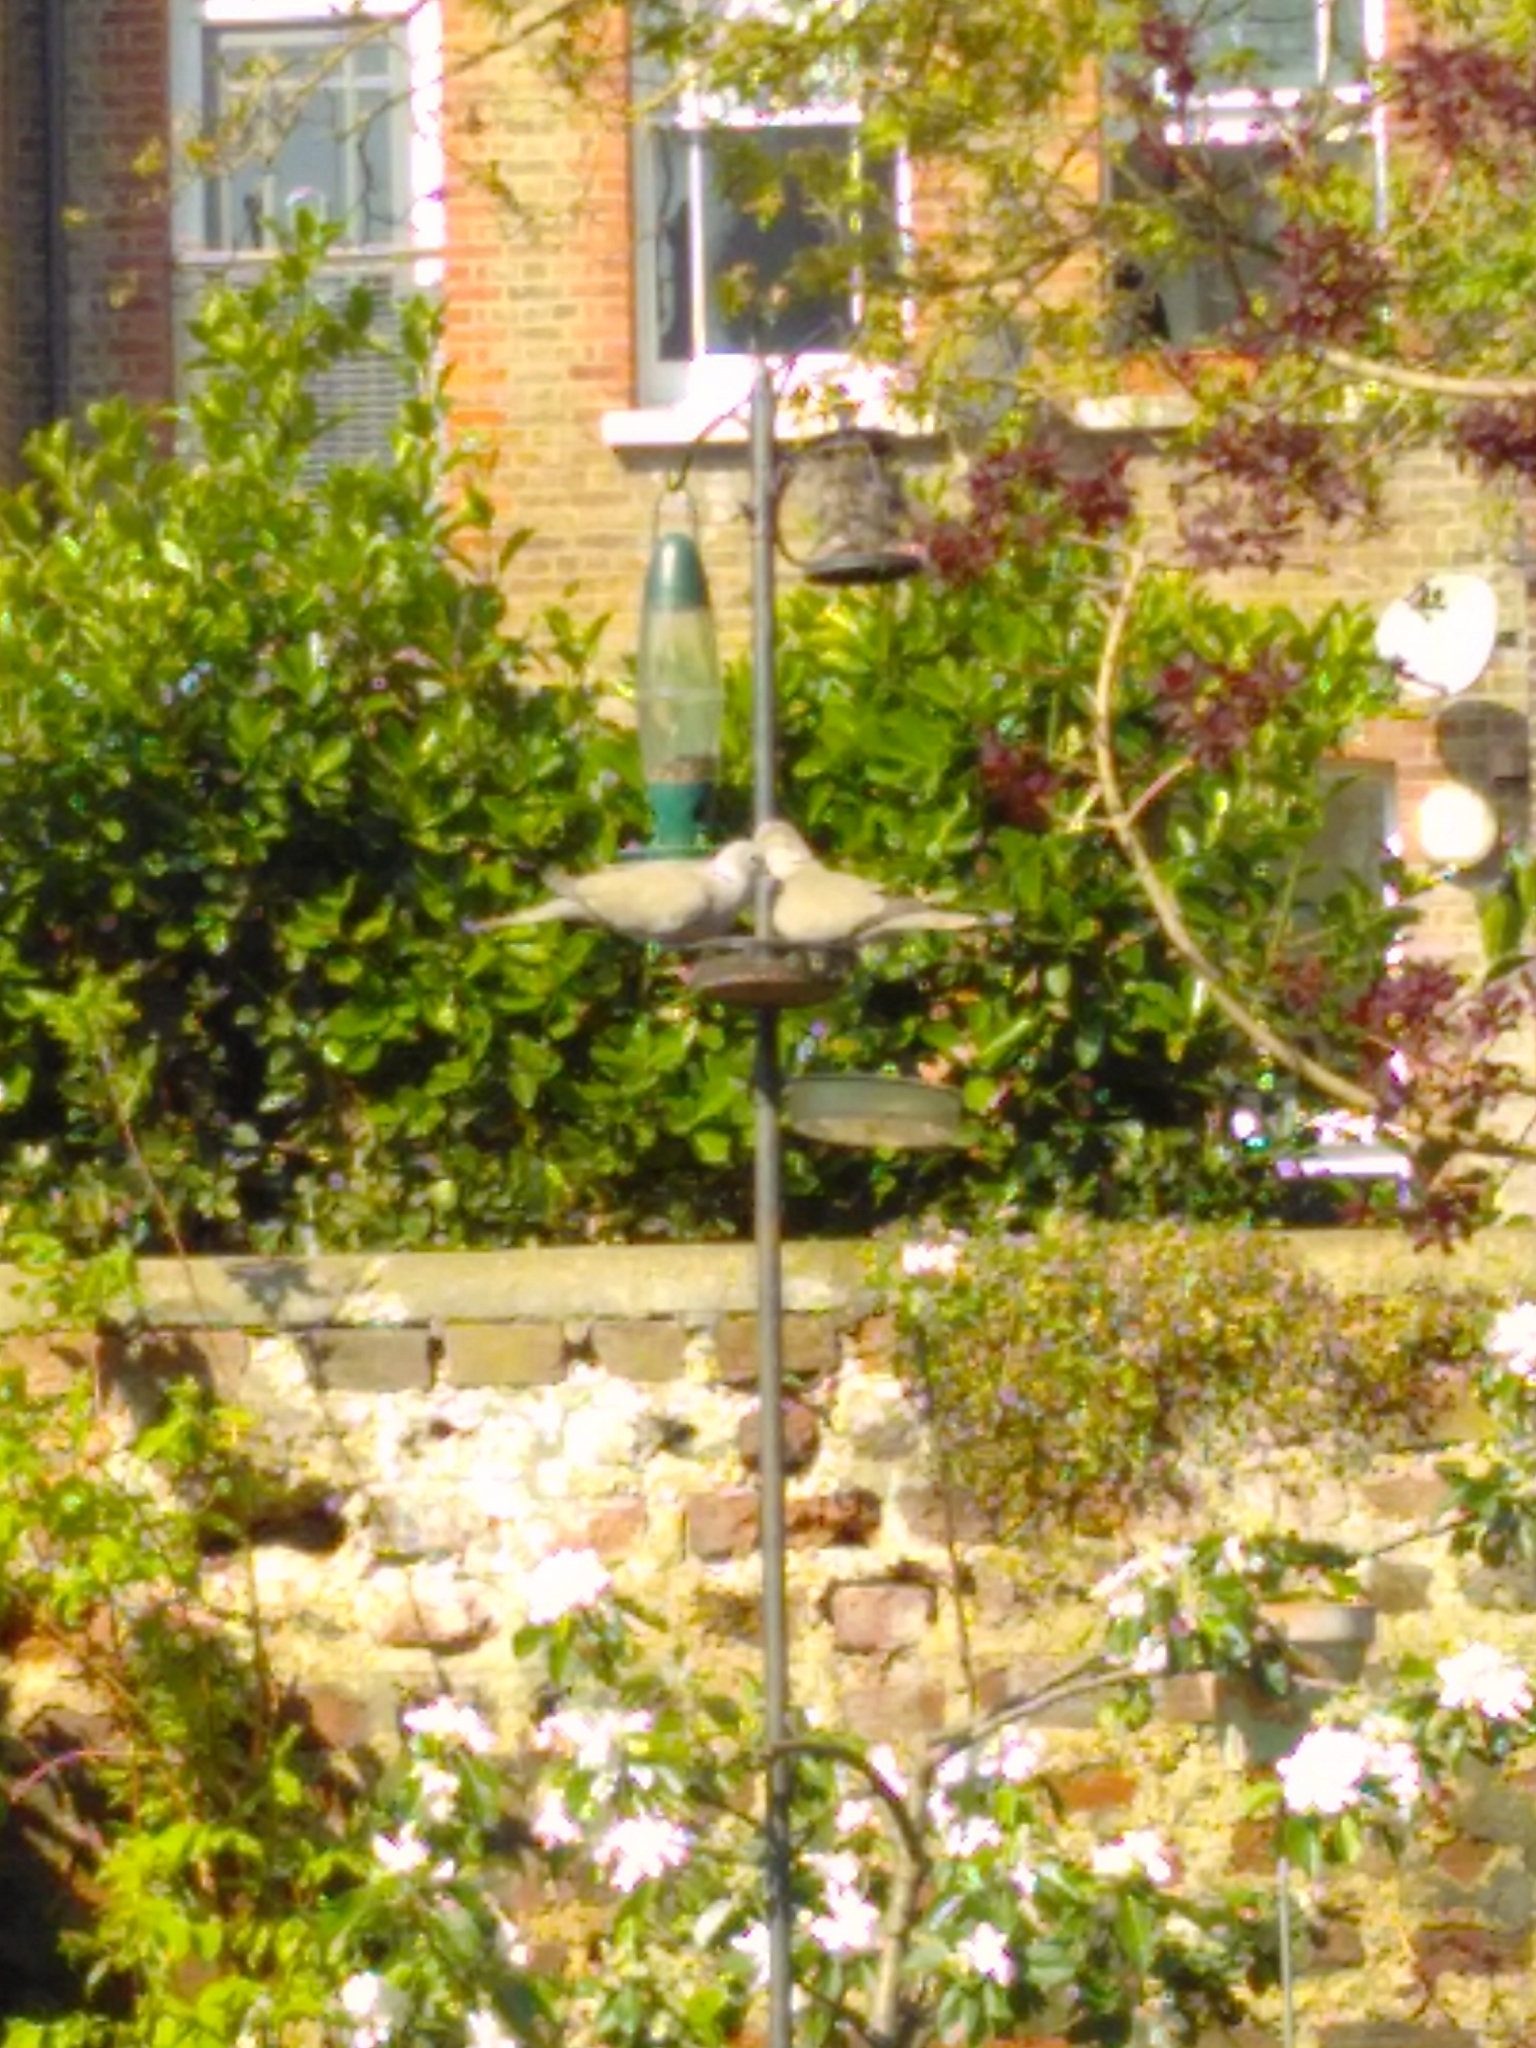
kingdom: Animalia
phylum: Chordata
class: Aves
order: Columbiformes
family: Columbidae
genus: Streptopelia
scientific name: Streptopelia decaocto
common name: Eurasian collared dove
